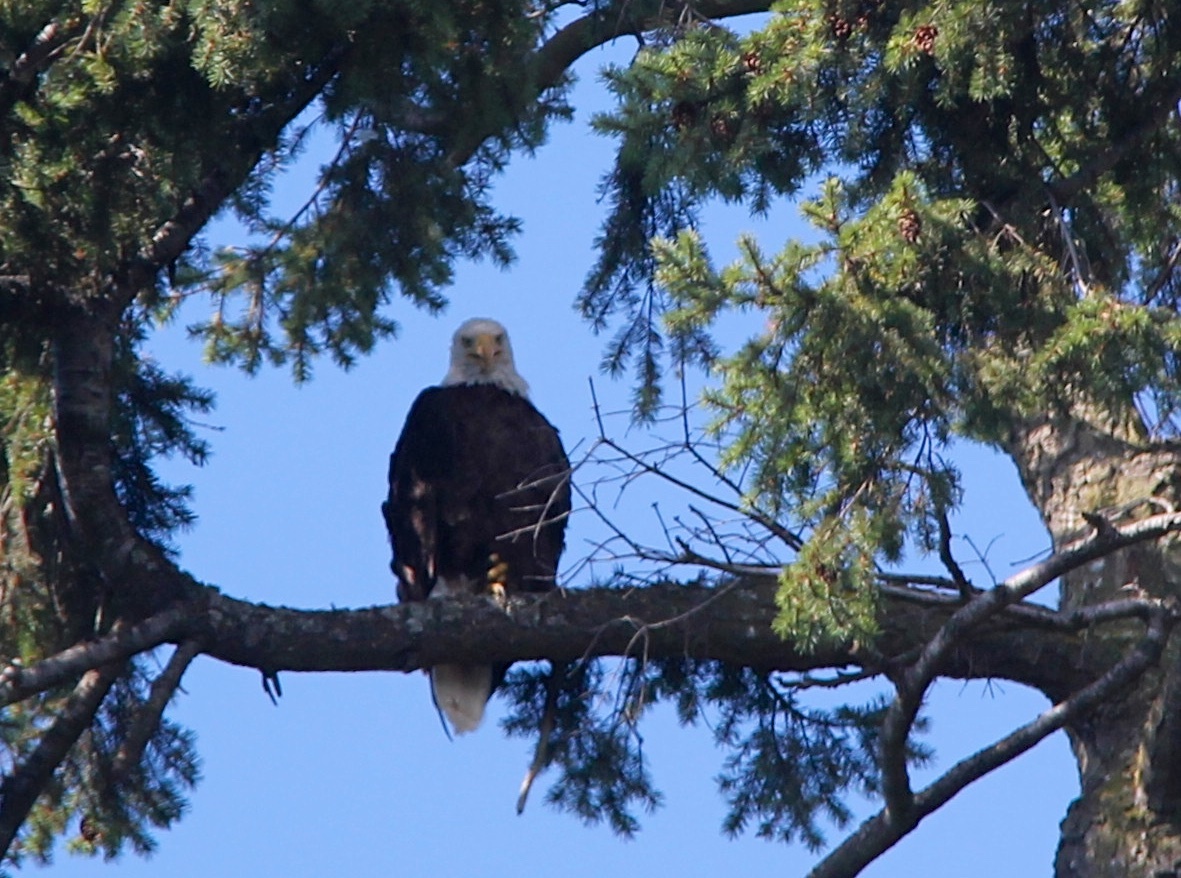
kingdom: Animalia
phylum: Chordata
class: Aves
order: Accipitriformes
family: Accipitridae
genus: Haliaeetus
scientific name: Haliaeetus leucocephalus
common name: Bald eagle
